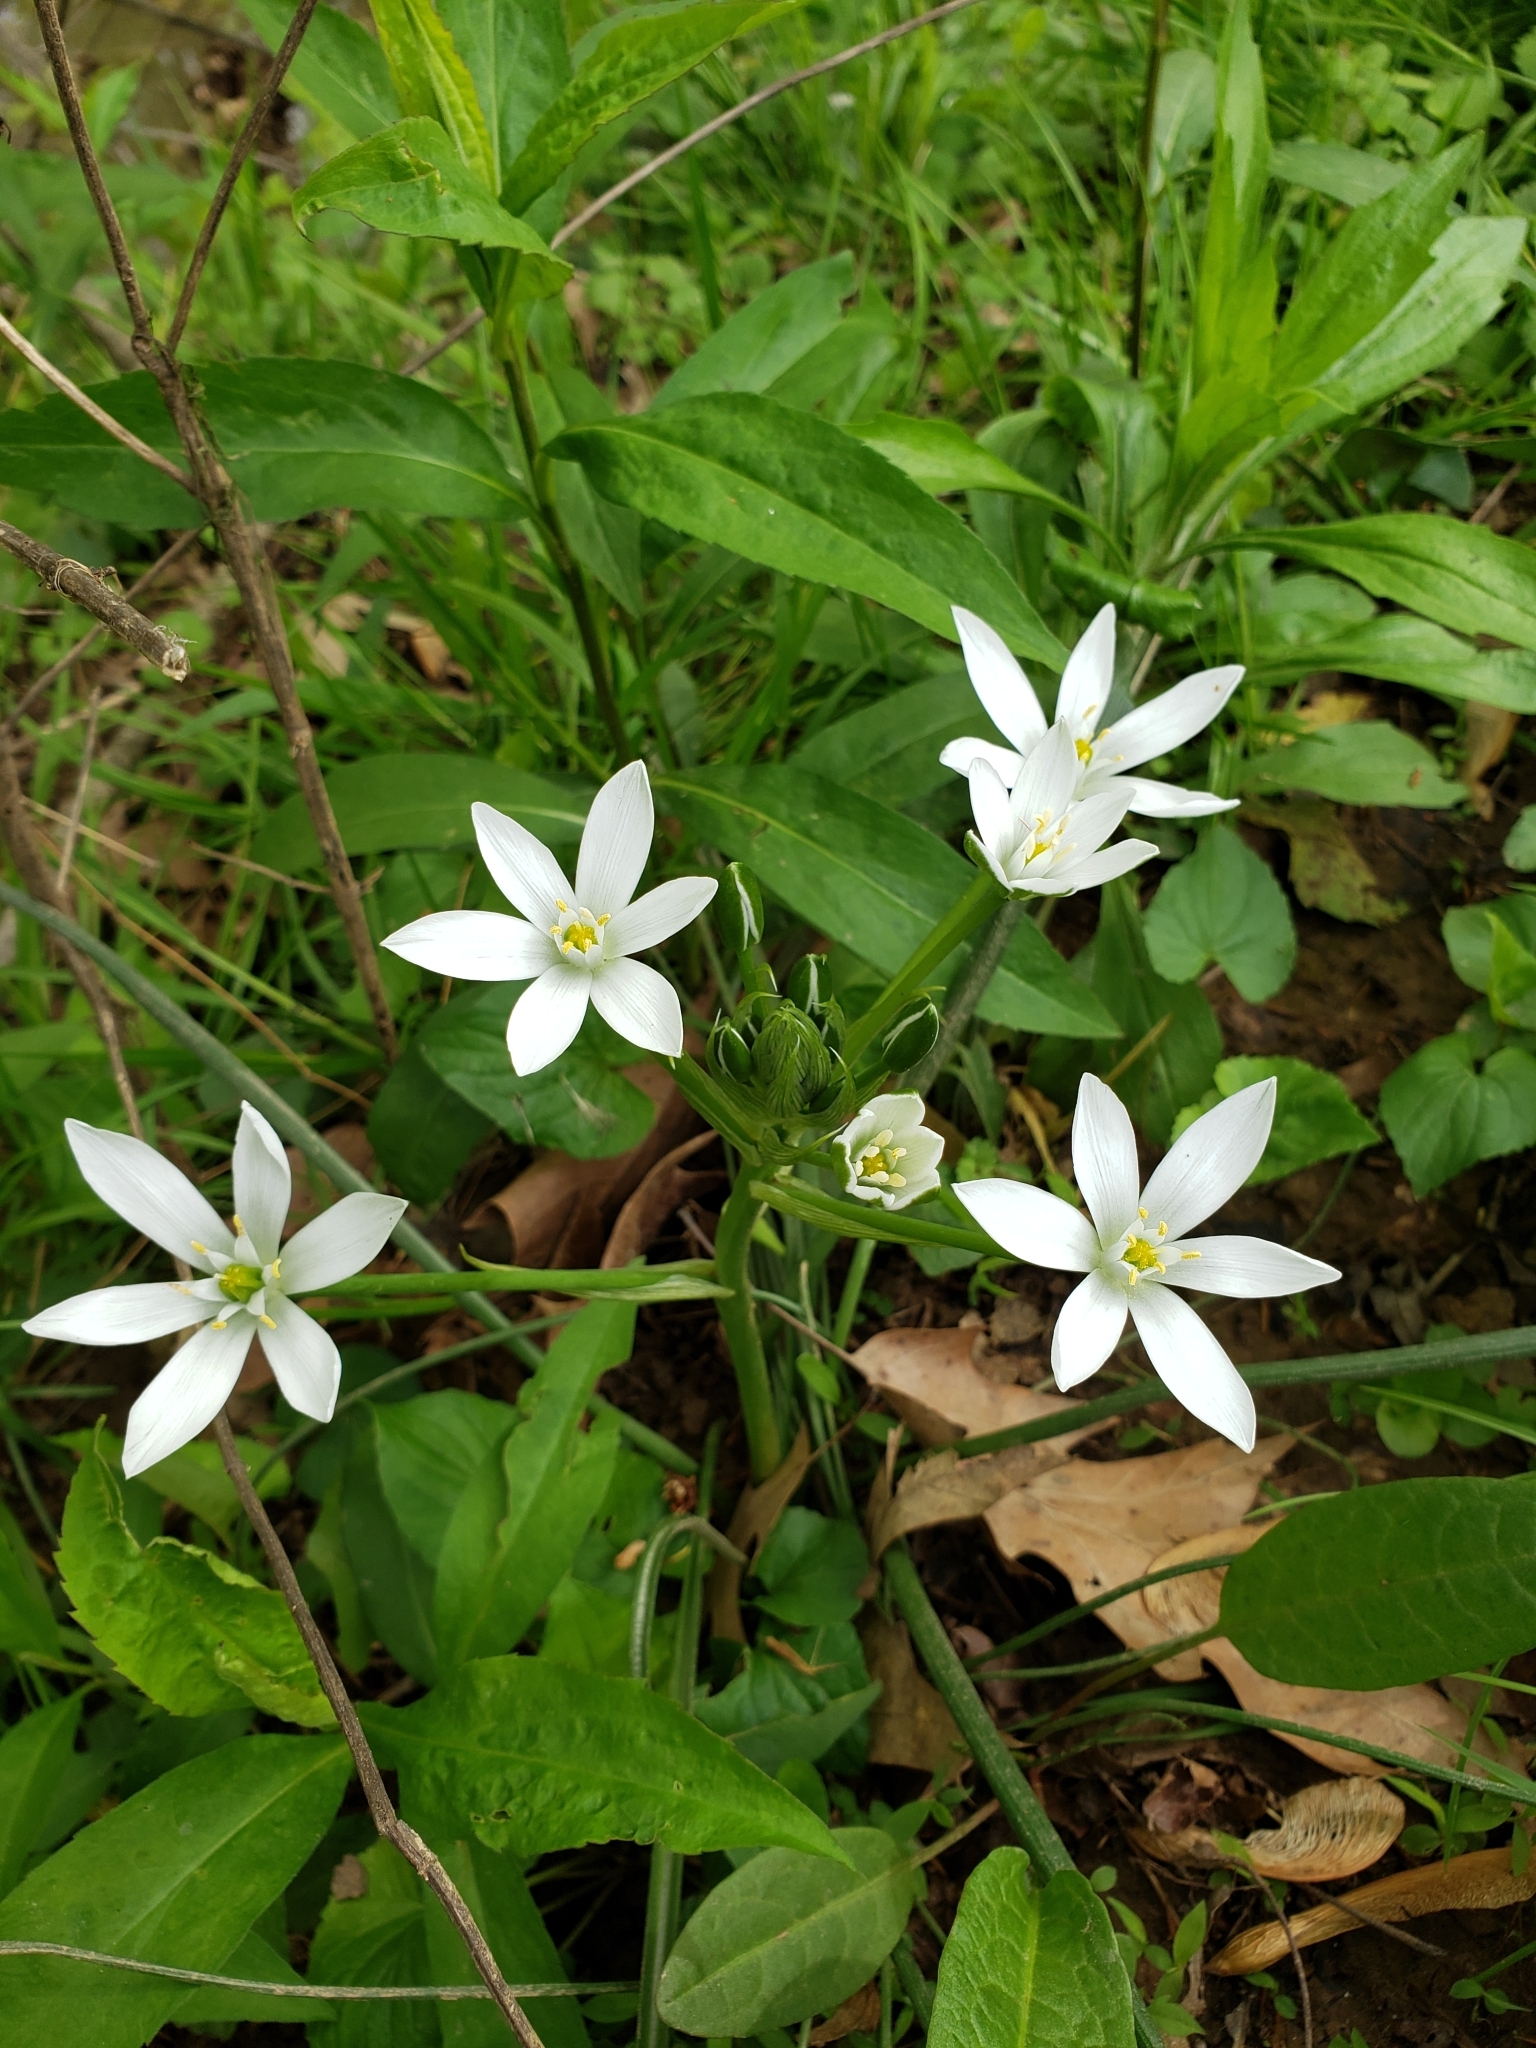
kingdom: Plantae
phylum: Tracheophyta
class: Liliopsida
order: Asparagales
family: Asparagaceae
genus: Ornithogalum
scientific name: Ornithogalum umbellatum
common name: Garden star-of-bethlehem
